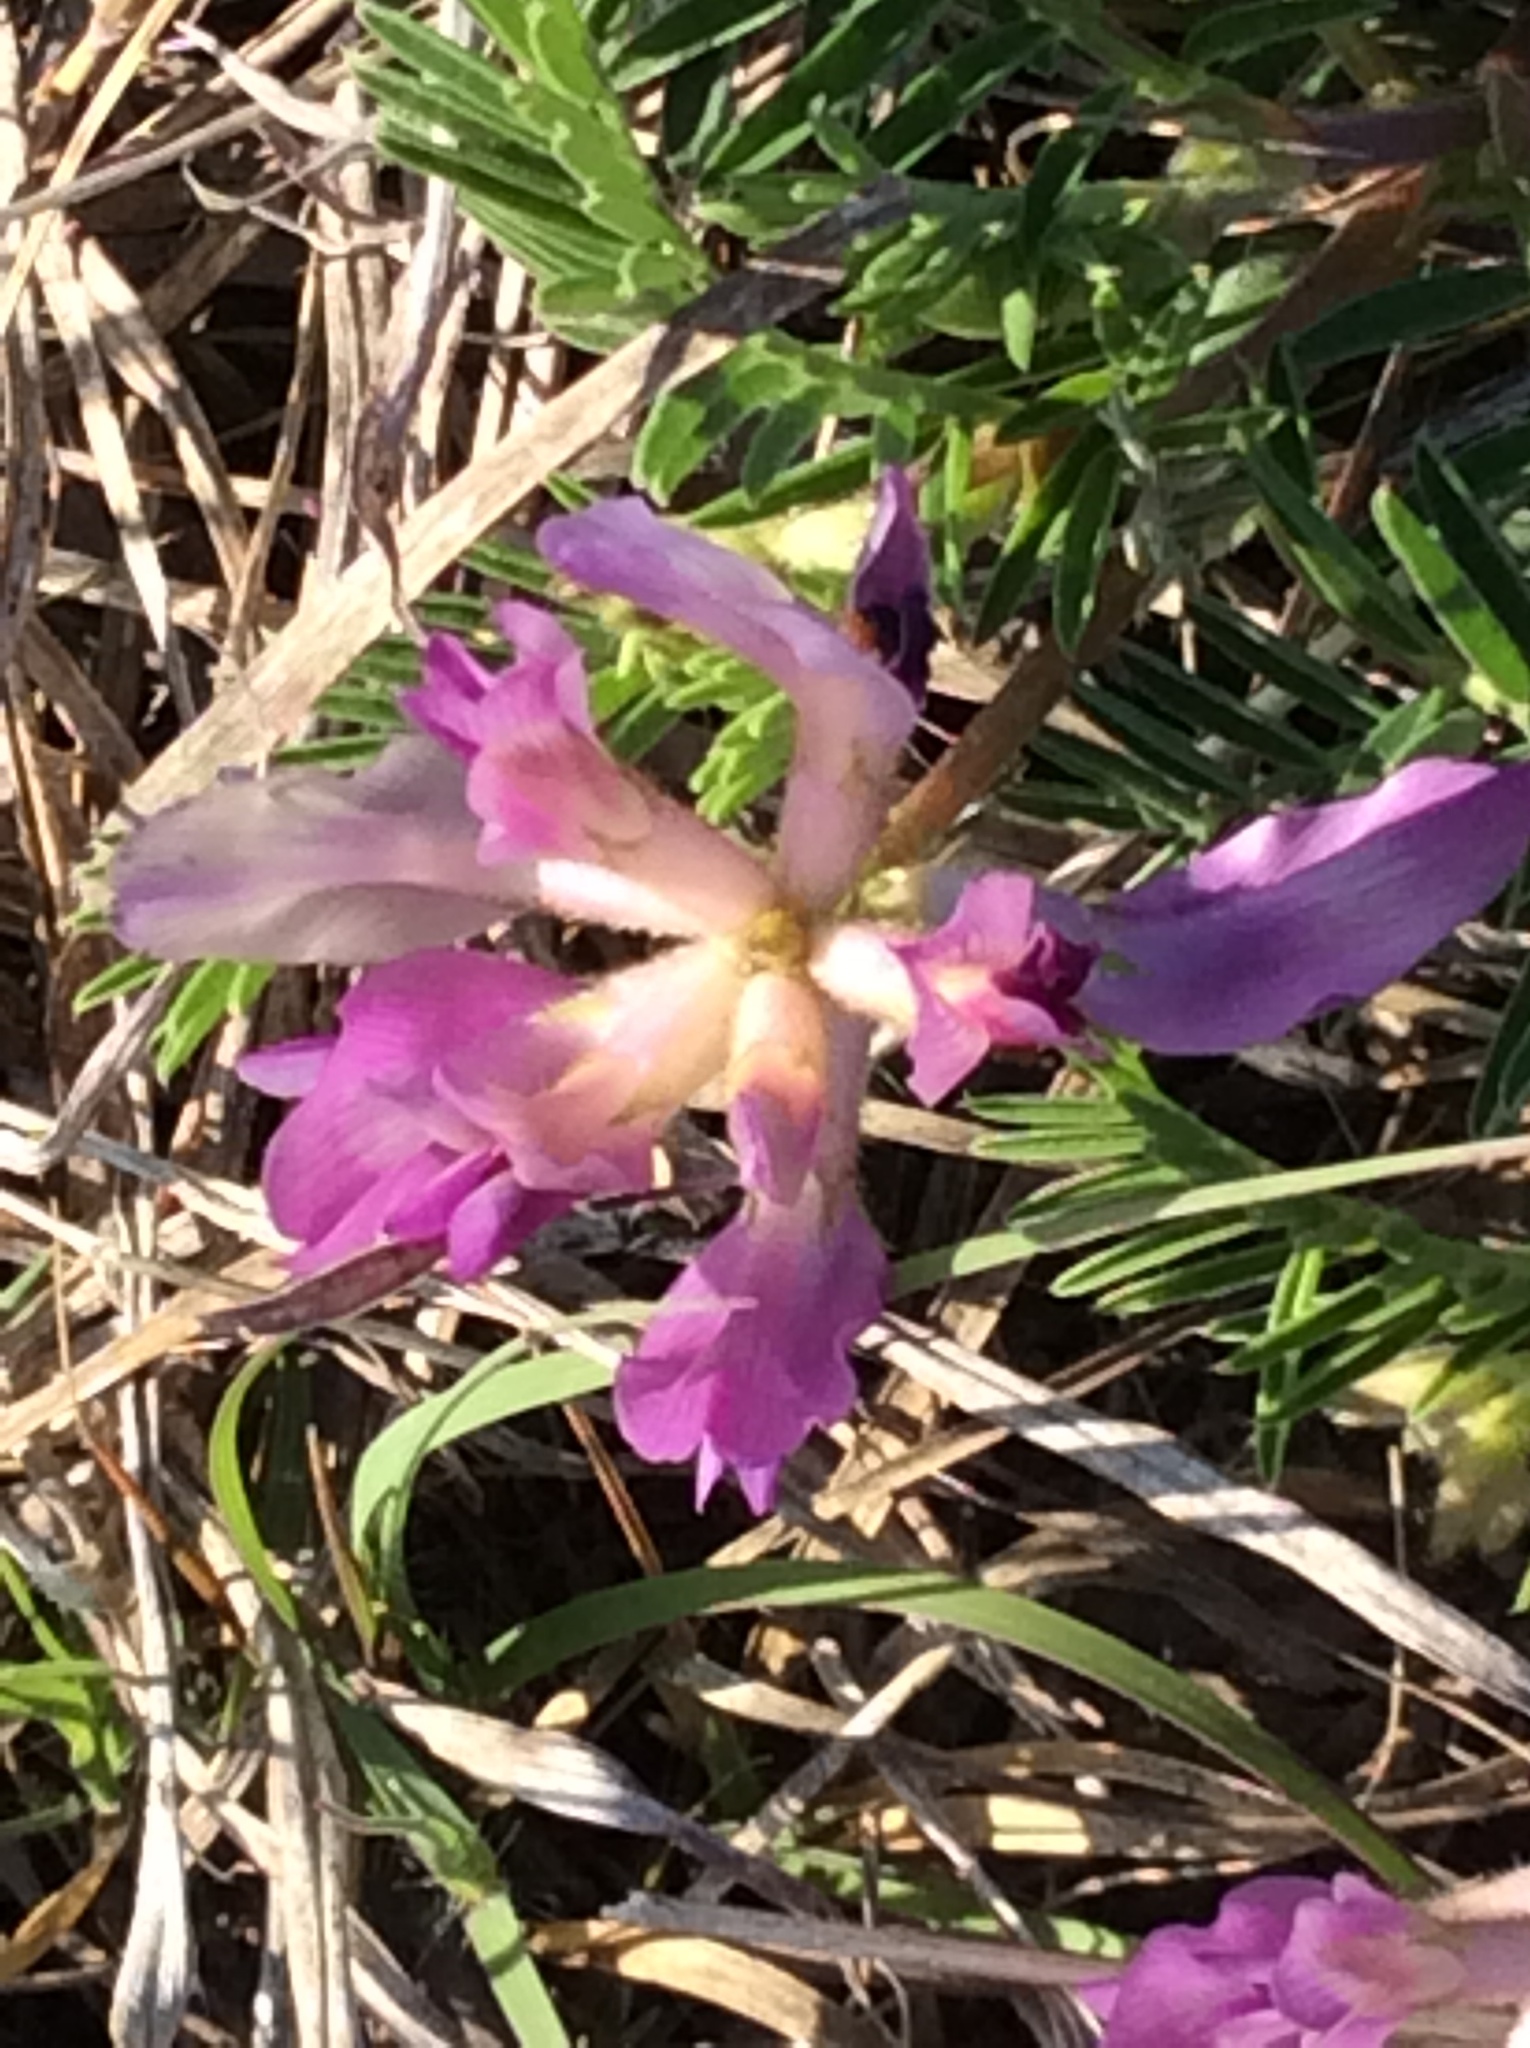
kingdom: Plantae
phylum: Tracheophyta
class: Magnoliopsida
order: Fabales
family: Fabaceae
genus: Astragalus
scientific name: Astragalus crassicarpus
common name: Ground-plum milk-vetch
